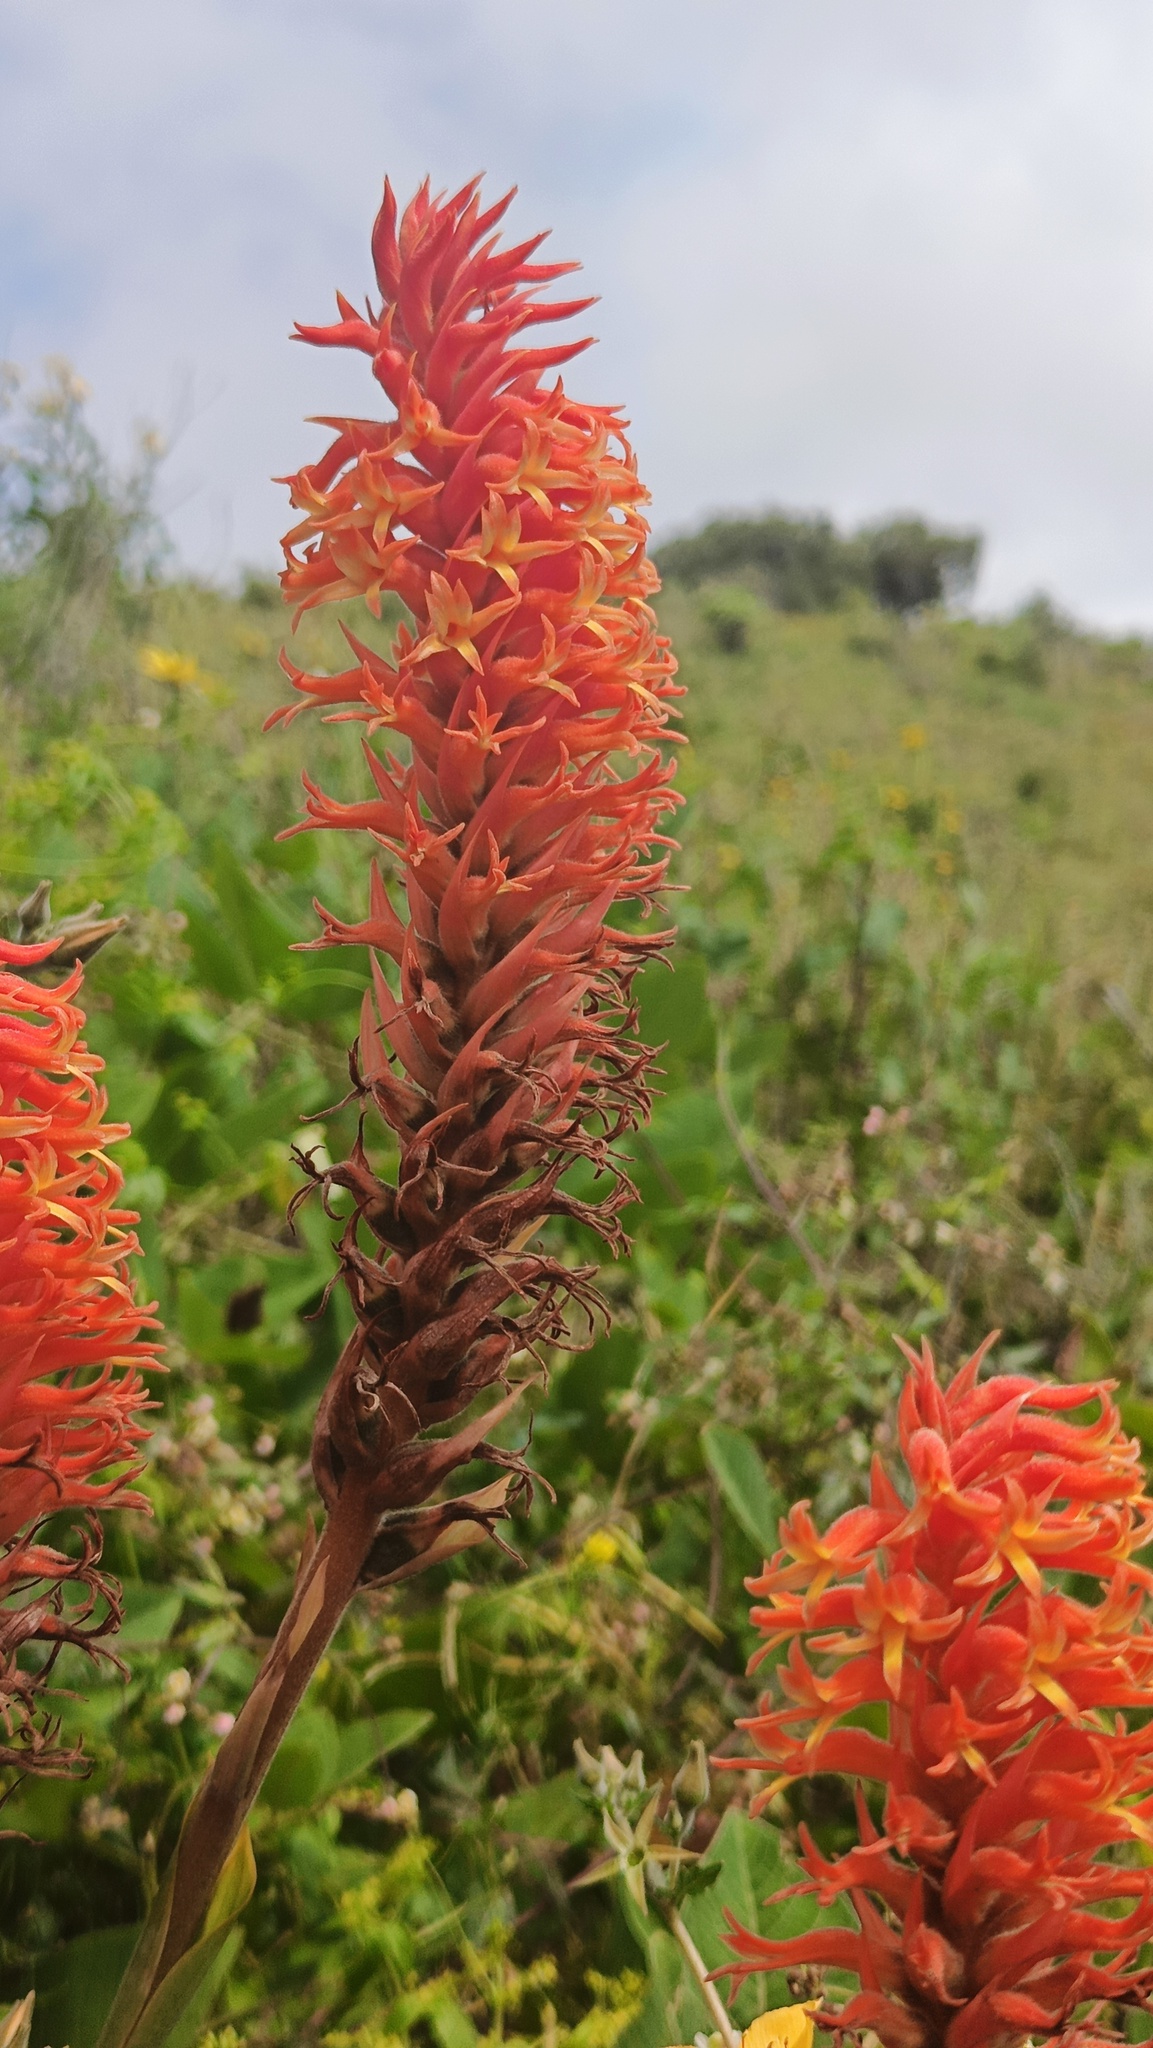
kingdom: Plantae
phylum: Tracheophyta
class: Liliopsida
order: Asparagales
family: Orchidaceae
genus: Dichromanthus
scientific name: Dichromanthus cinnabarinus
